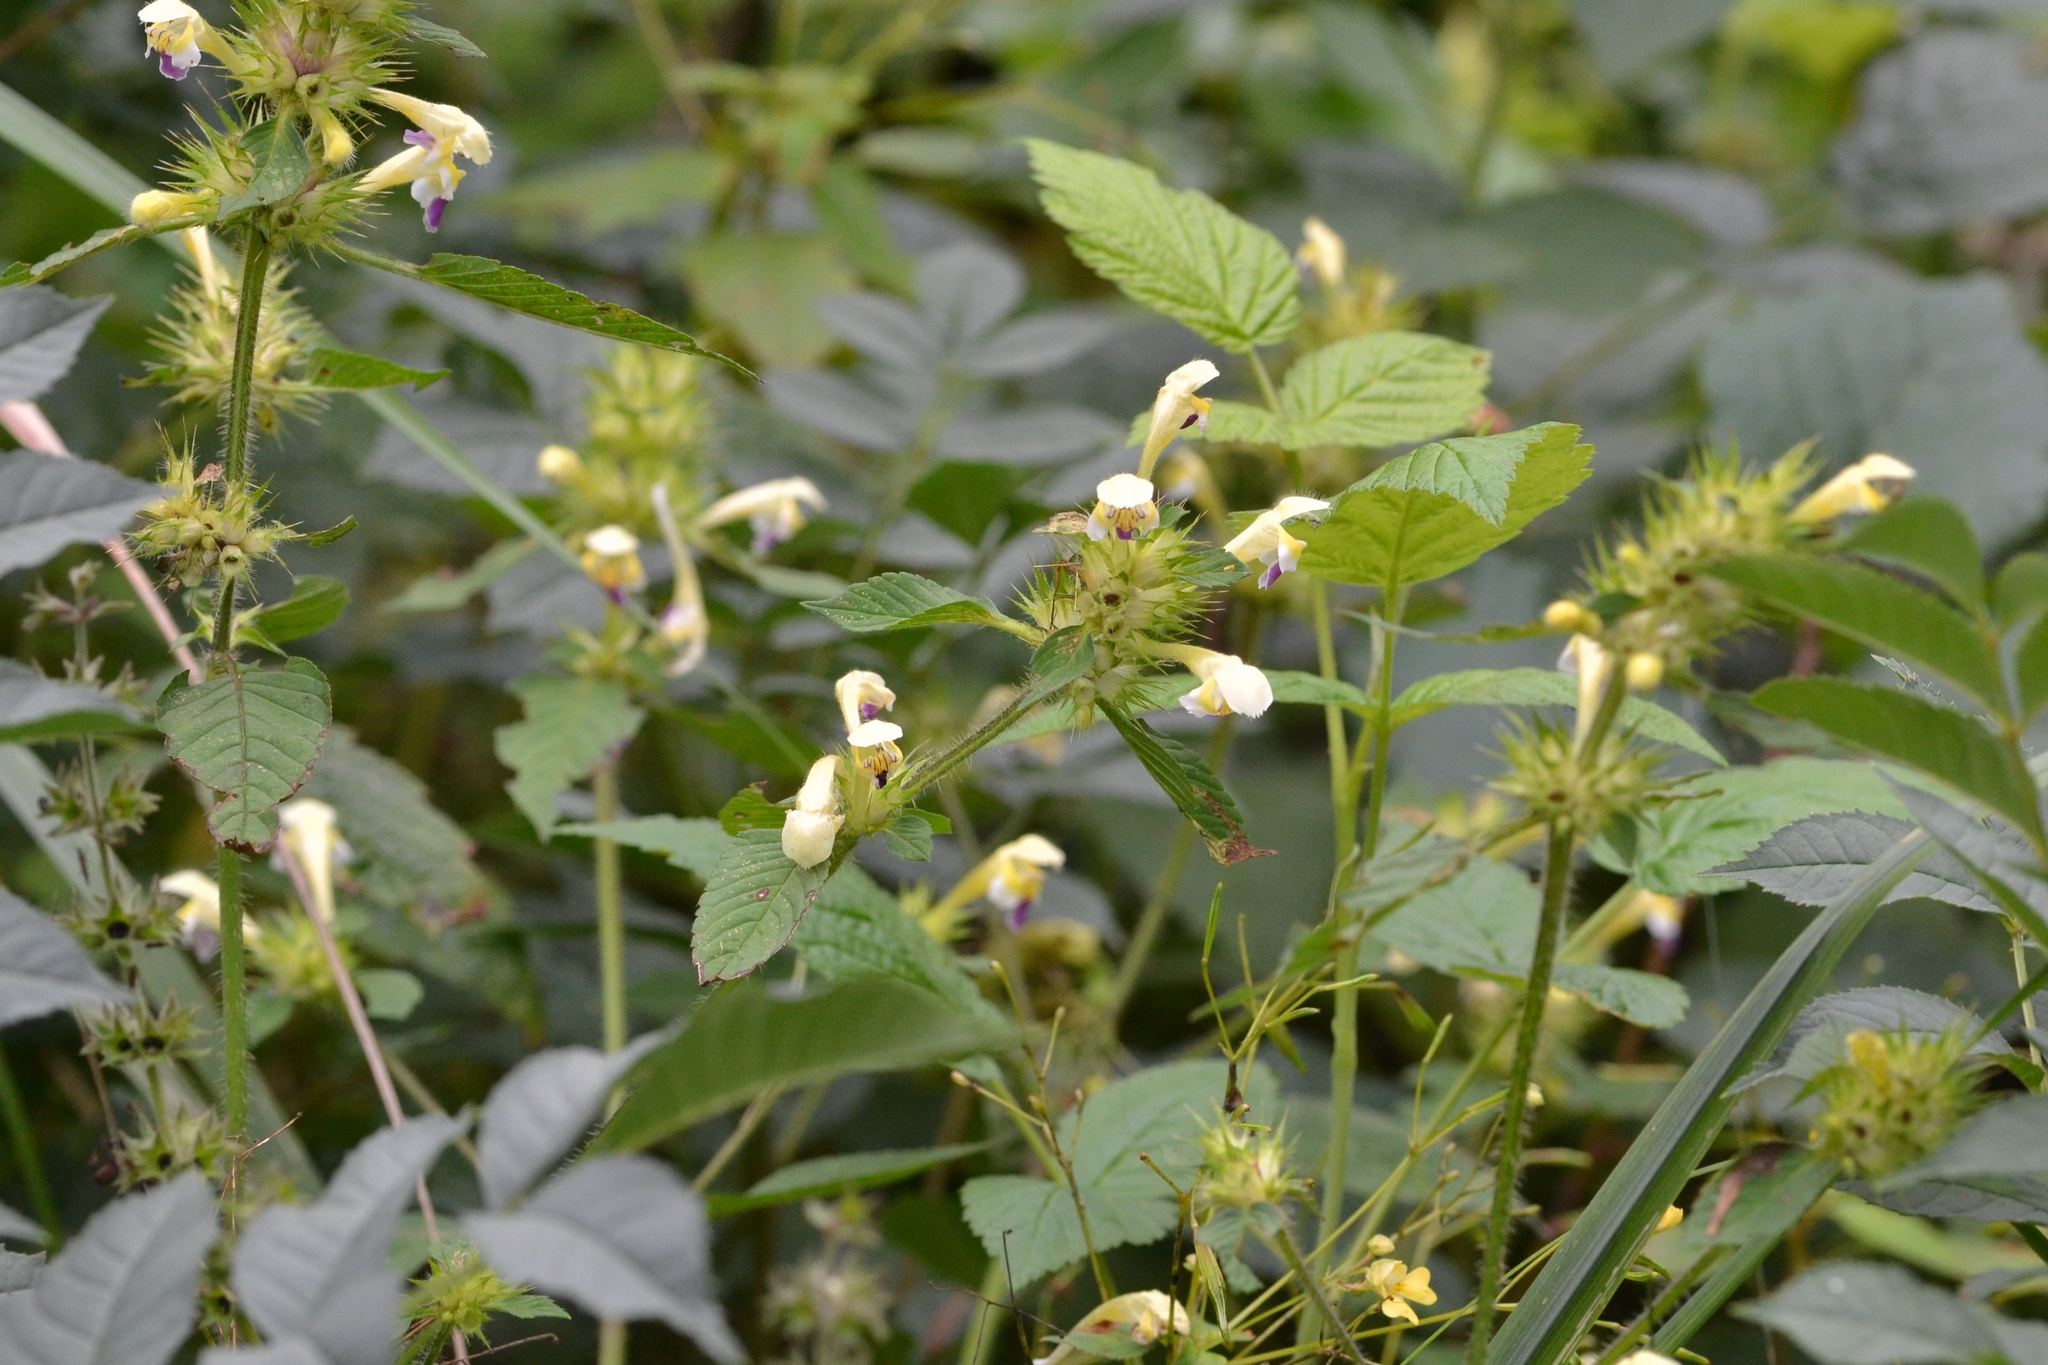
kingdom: Plantae
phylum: Tracheophyta
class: Magnoliopsida
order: Lamiales
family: Lamiaceae
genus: Galeopsis
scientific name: Galeopsis speciosa
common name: Large-flowered hemp-nettle
